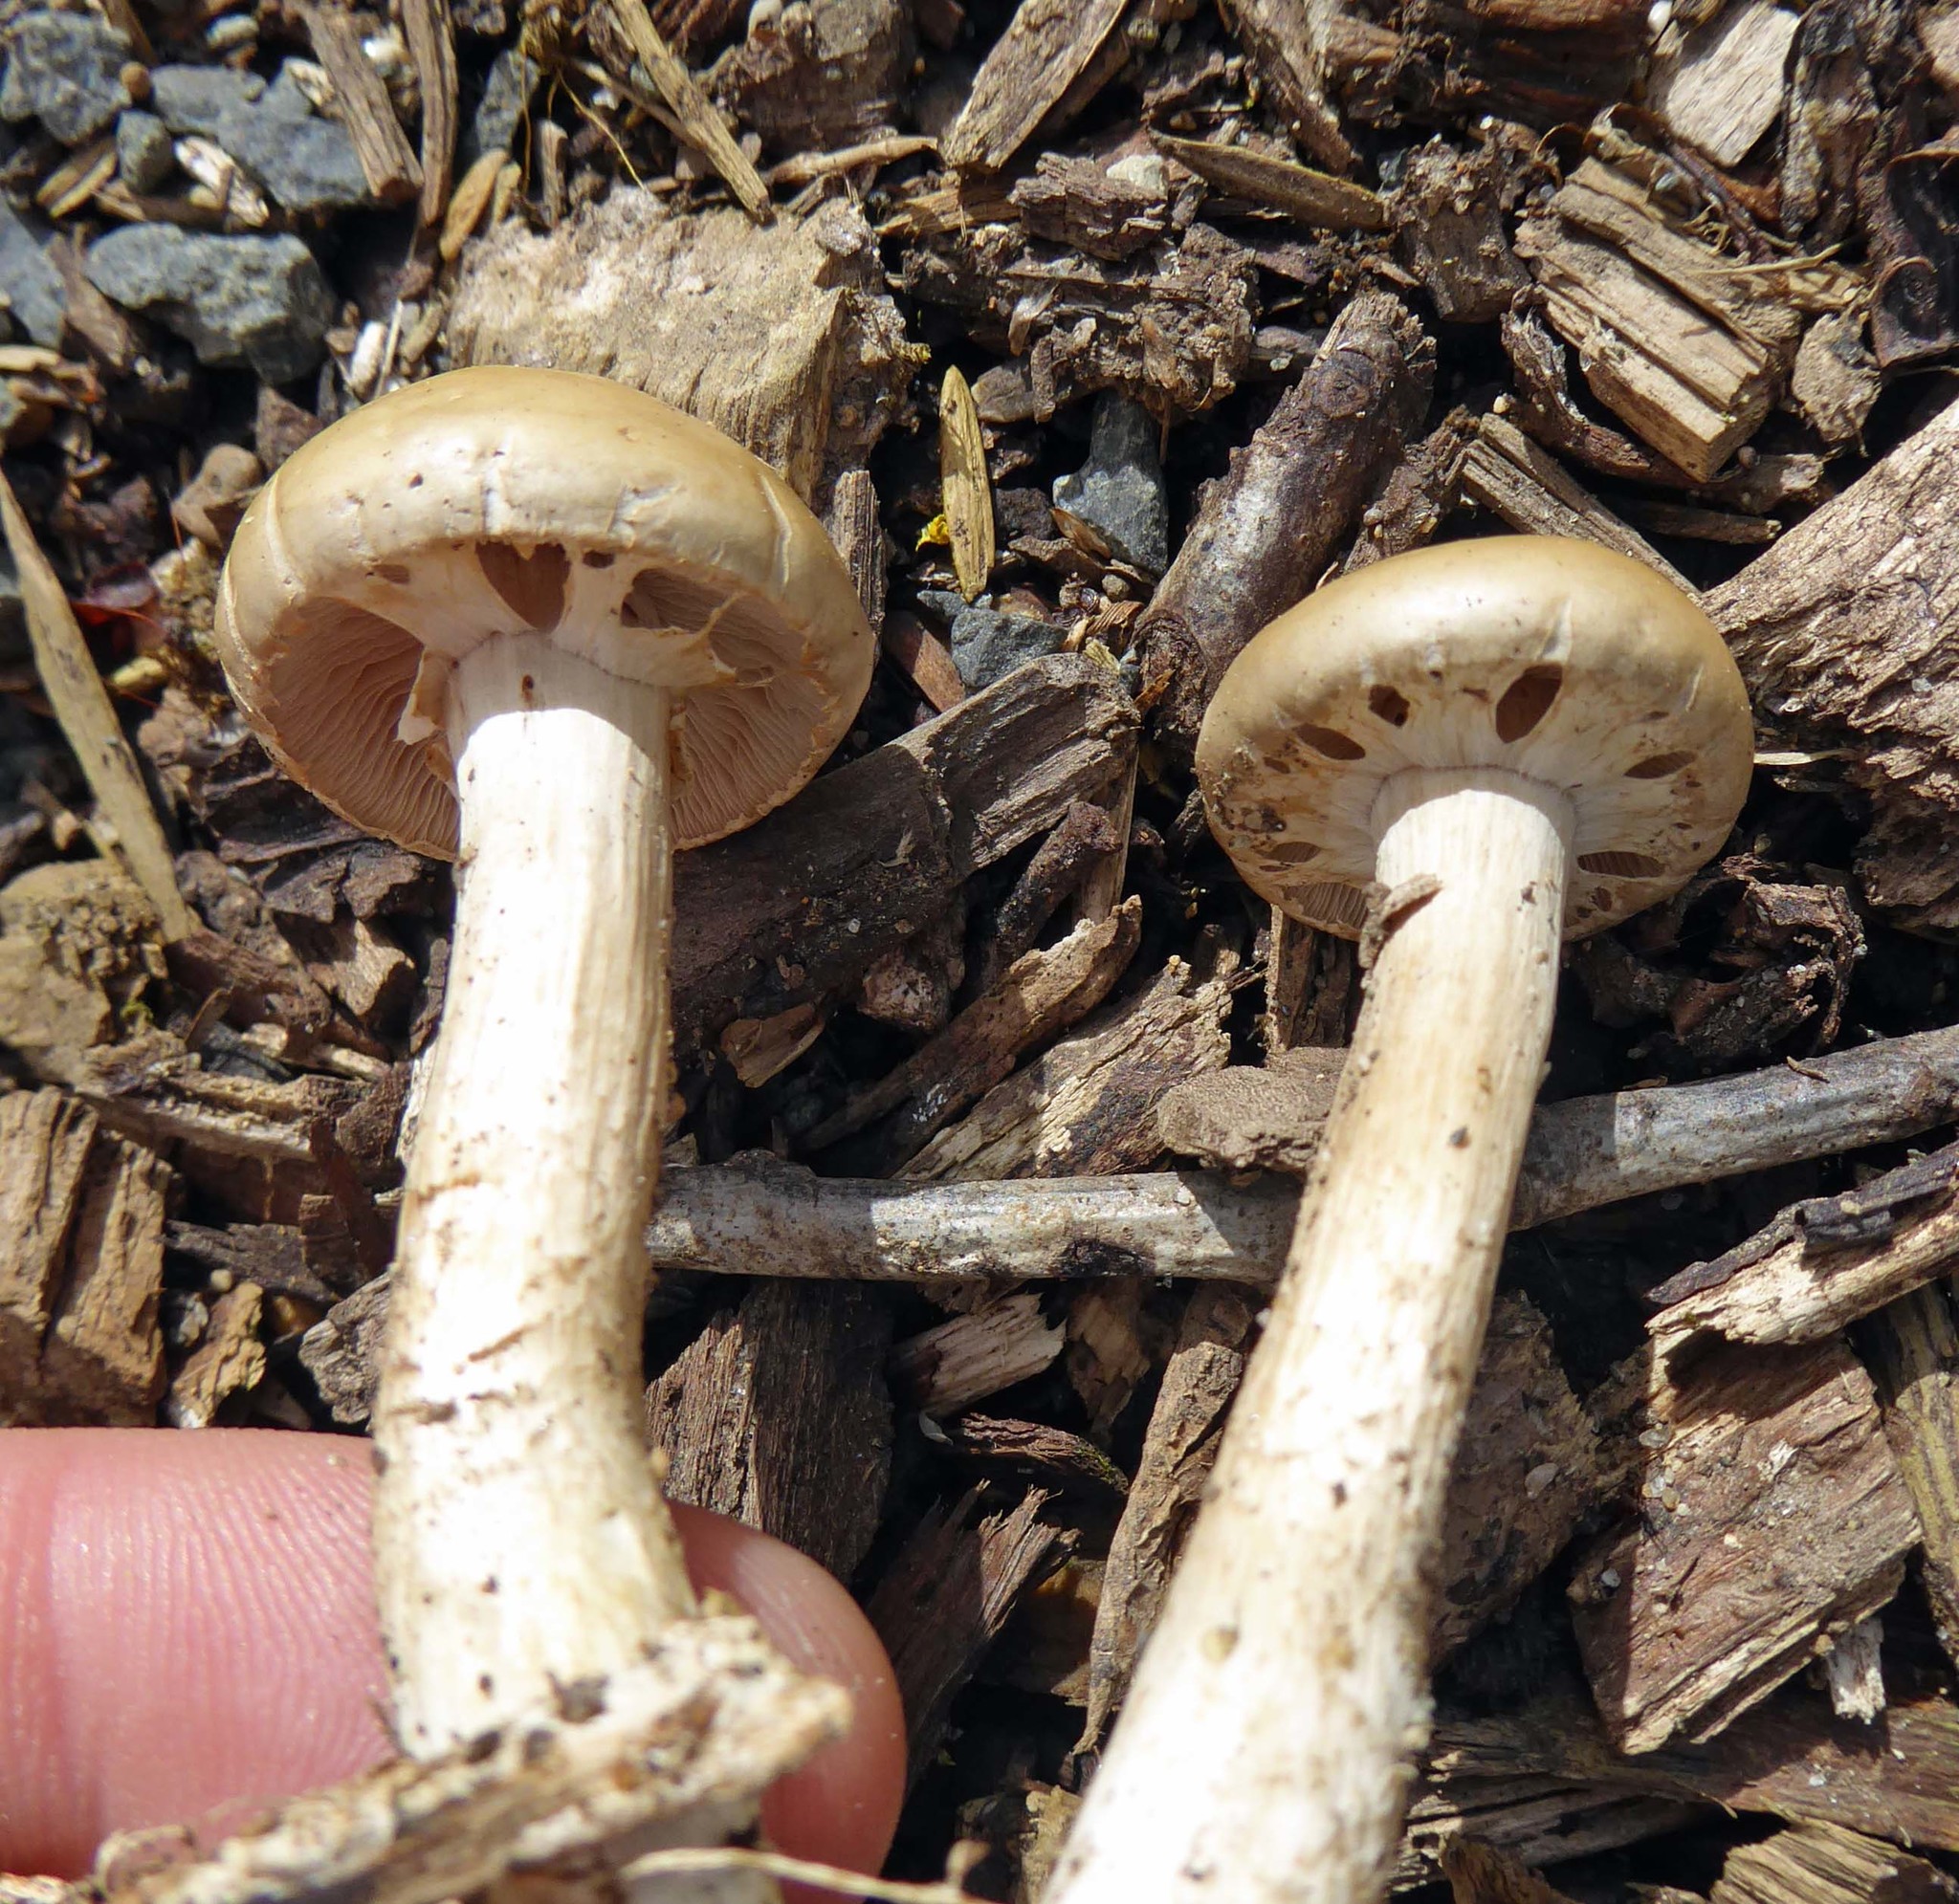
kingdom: Fungi
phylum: Basidiomycota
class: Agaricomycetes
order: Agaricales
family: Strophariaceae
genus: Agrocybe
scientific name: Agrocybe praecox
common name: Spring fieldcap
